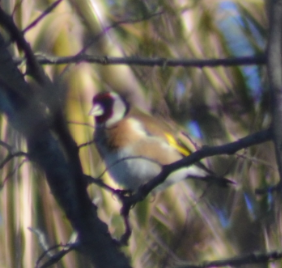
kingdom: Animalia
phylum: Chordata
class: Aves
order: Passeriformes
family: Fringillidae
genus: Carduelis
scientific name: Carduelis carduelis
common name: European goldfinch
